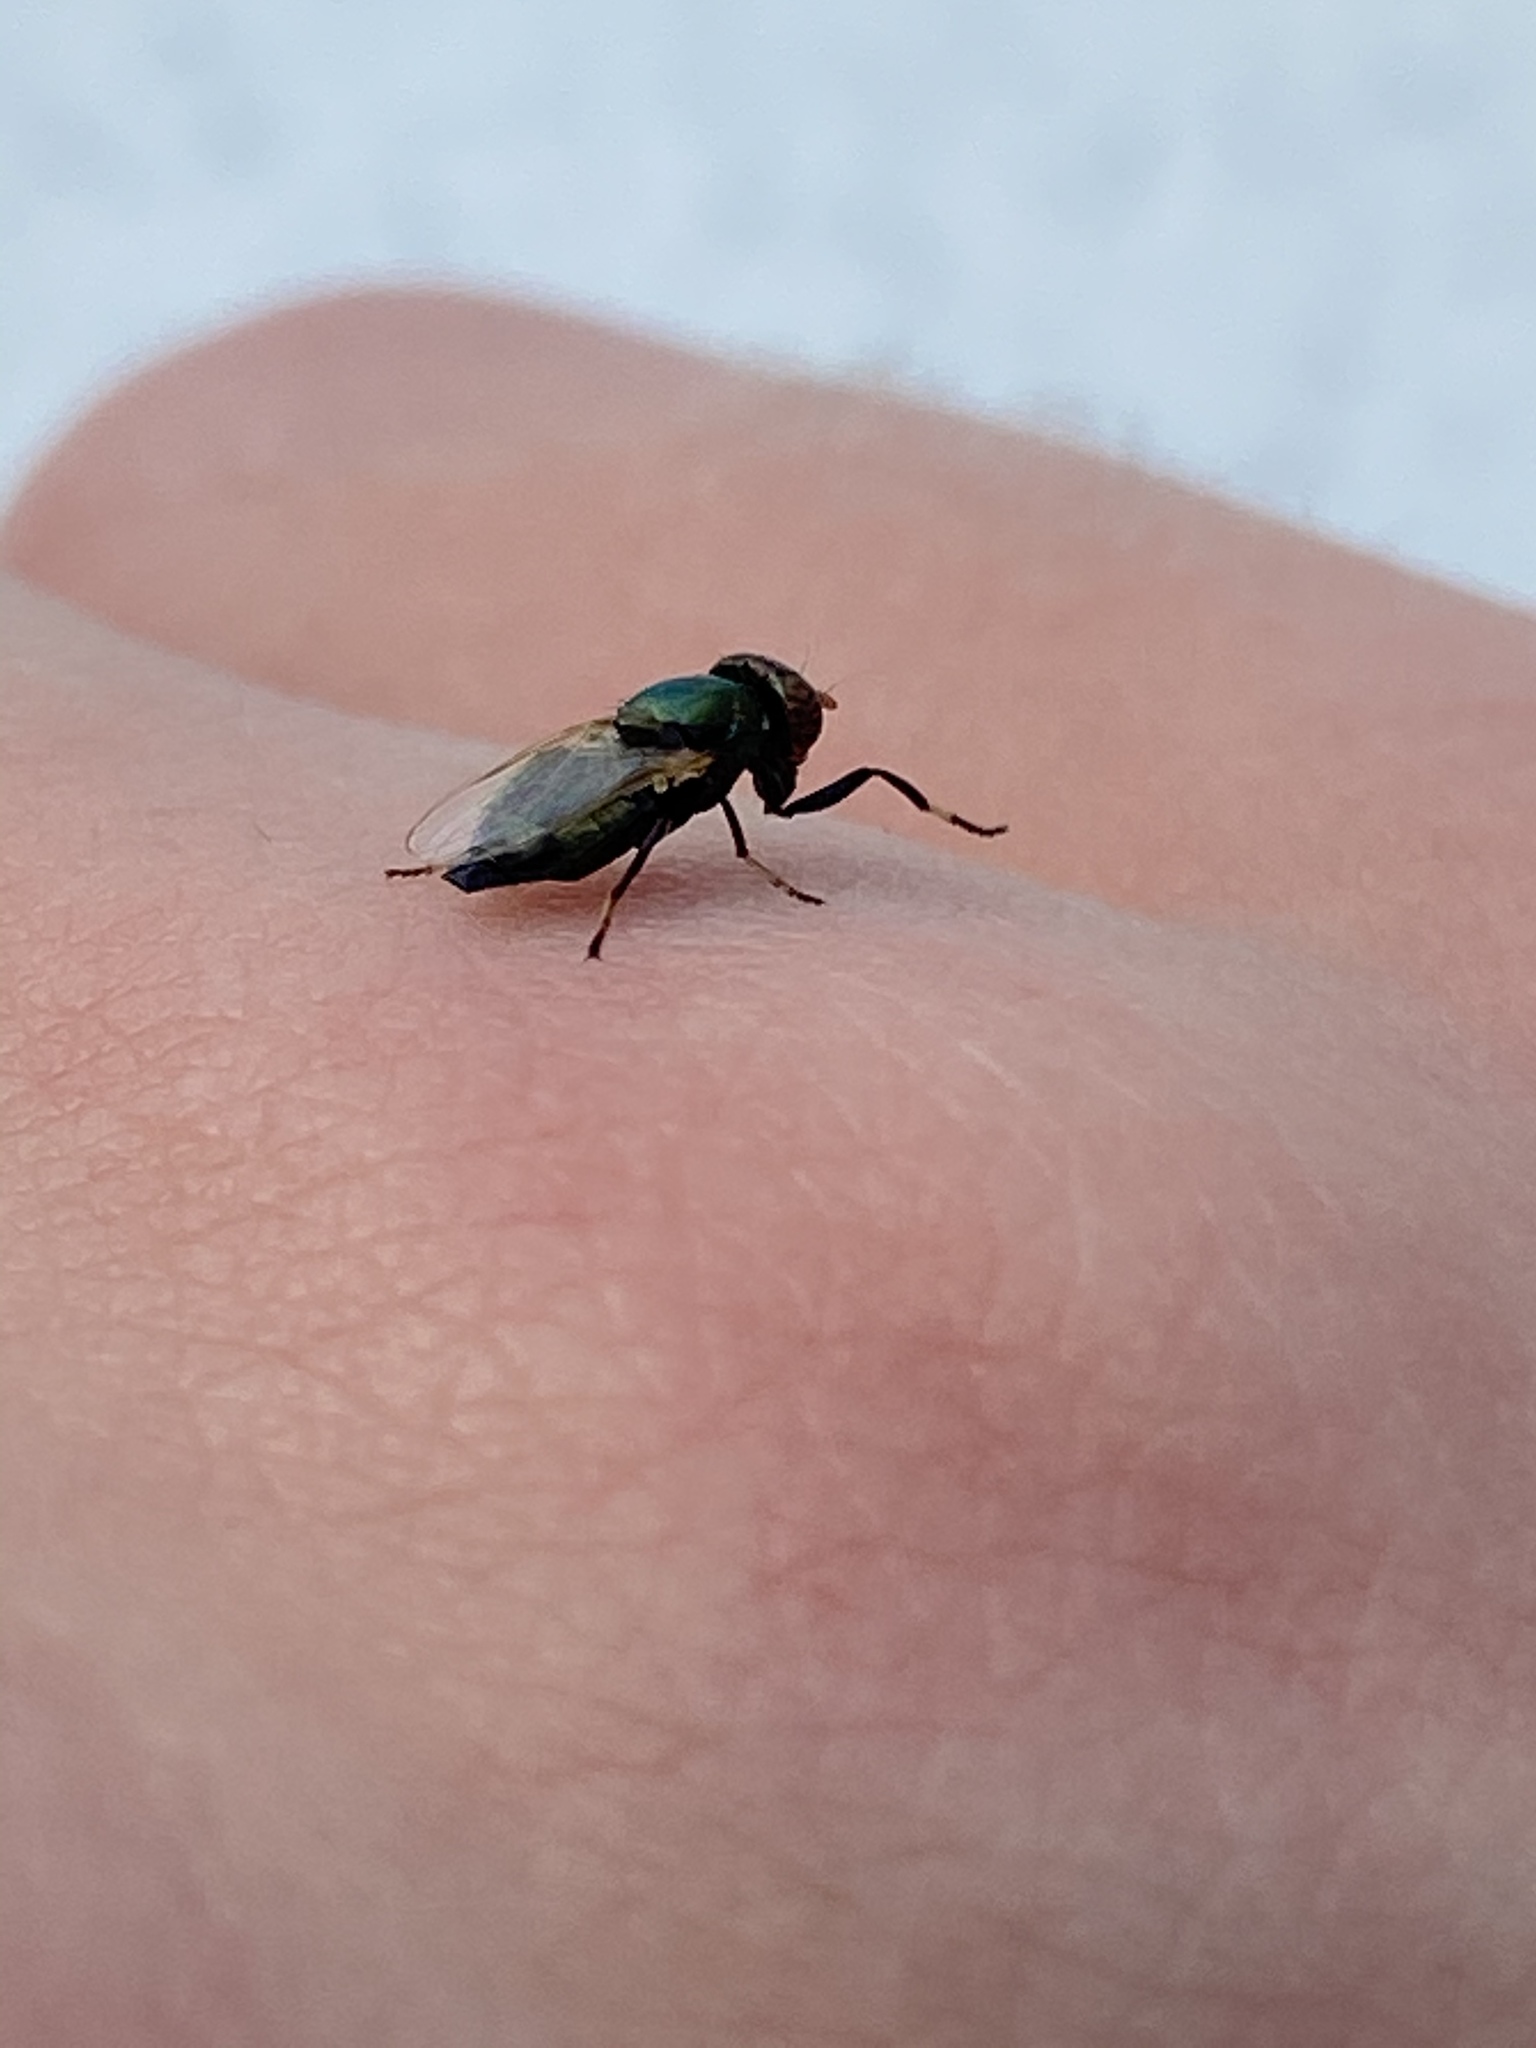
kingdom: Animalia
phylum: Arthropoda
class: Insecta
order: Diptera
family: Ulidiidae
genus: Physiphora
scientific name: Physiphora alceae
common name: Picture-winged fly
